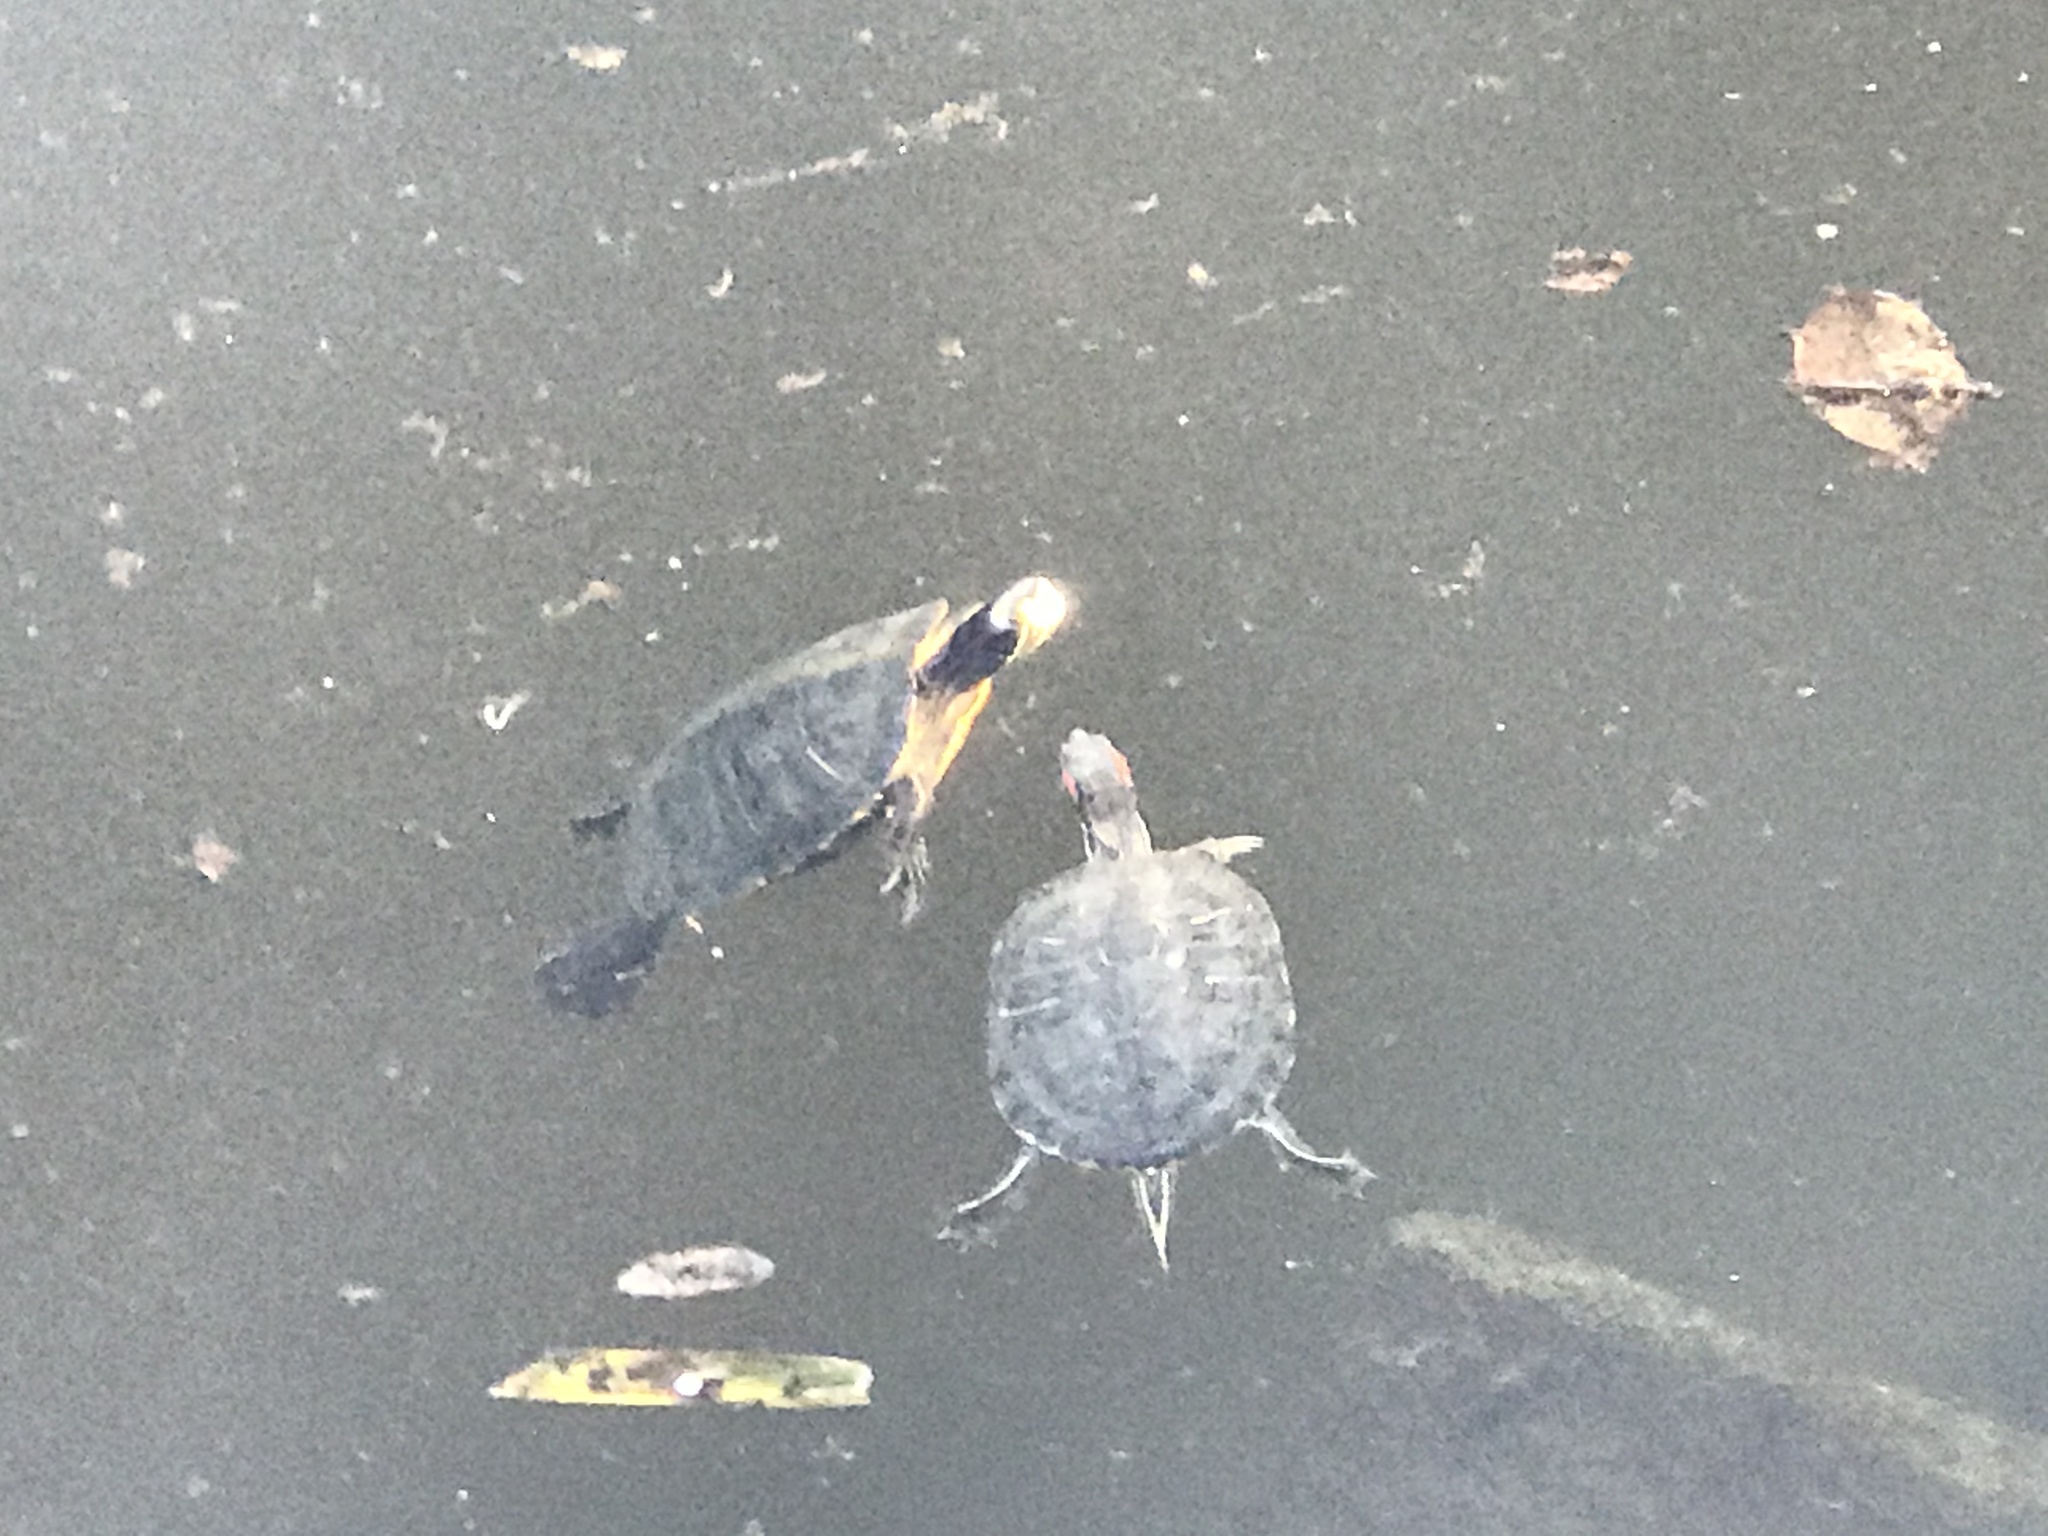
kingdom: Animalia
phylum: Chordata
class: Testudines
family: Emydidae
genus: Trachemys
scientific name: Trachemys scripta
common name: Slider
